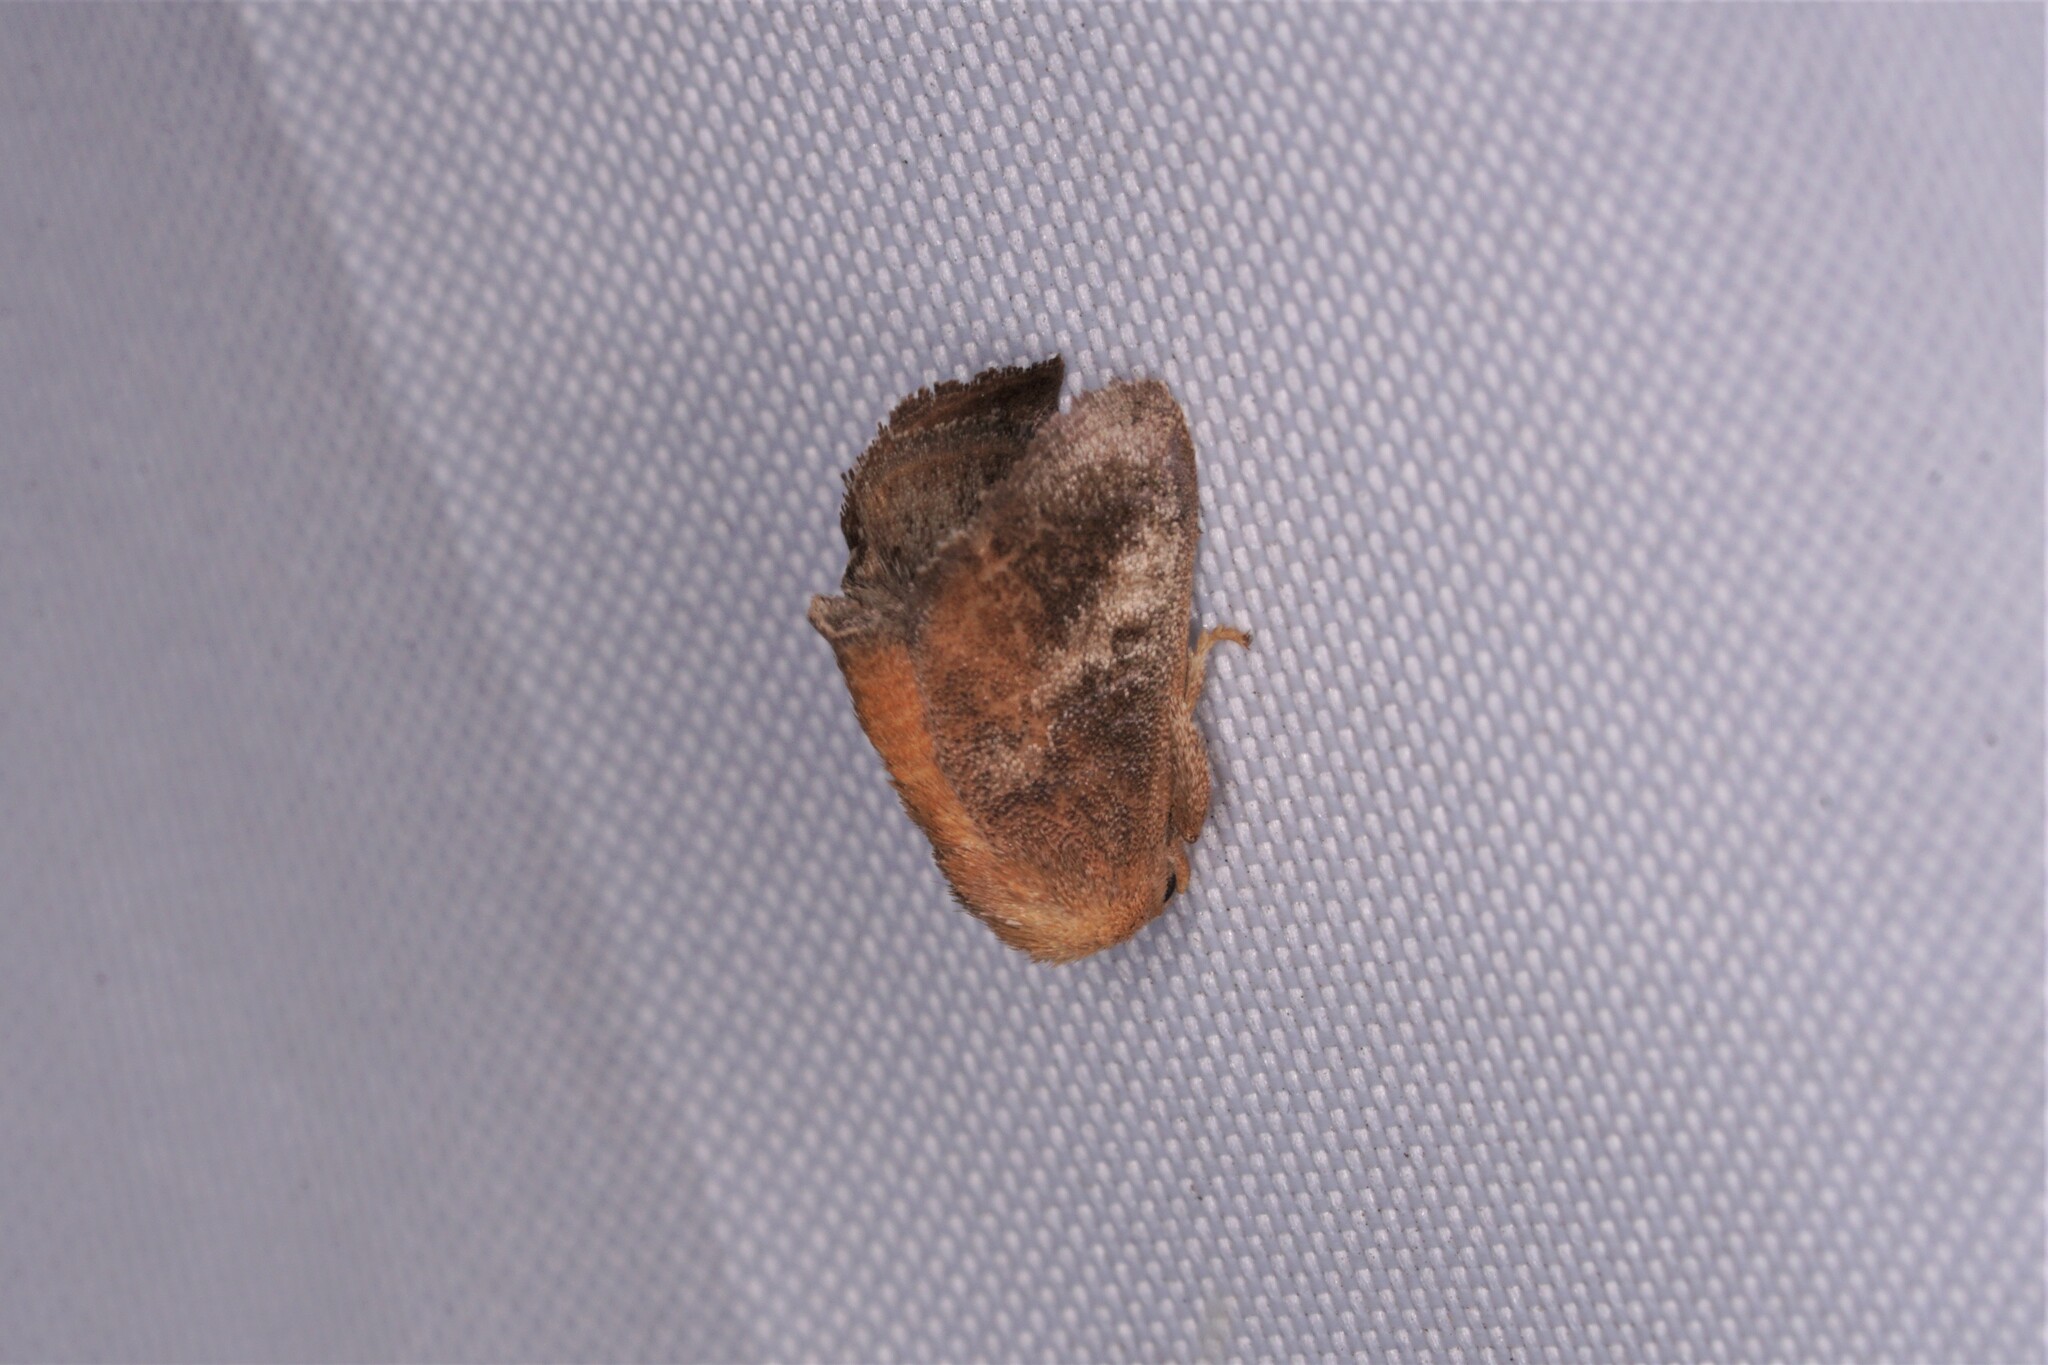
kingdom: Animalia
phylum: Arthropoda
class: Insecta
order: Lepidoptera
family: Limacodidae
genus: Isa
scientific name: Isa textula
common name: Crowned slug moth
